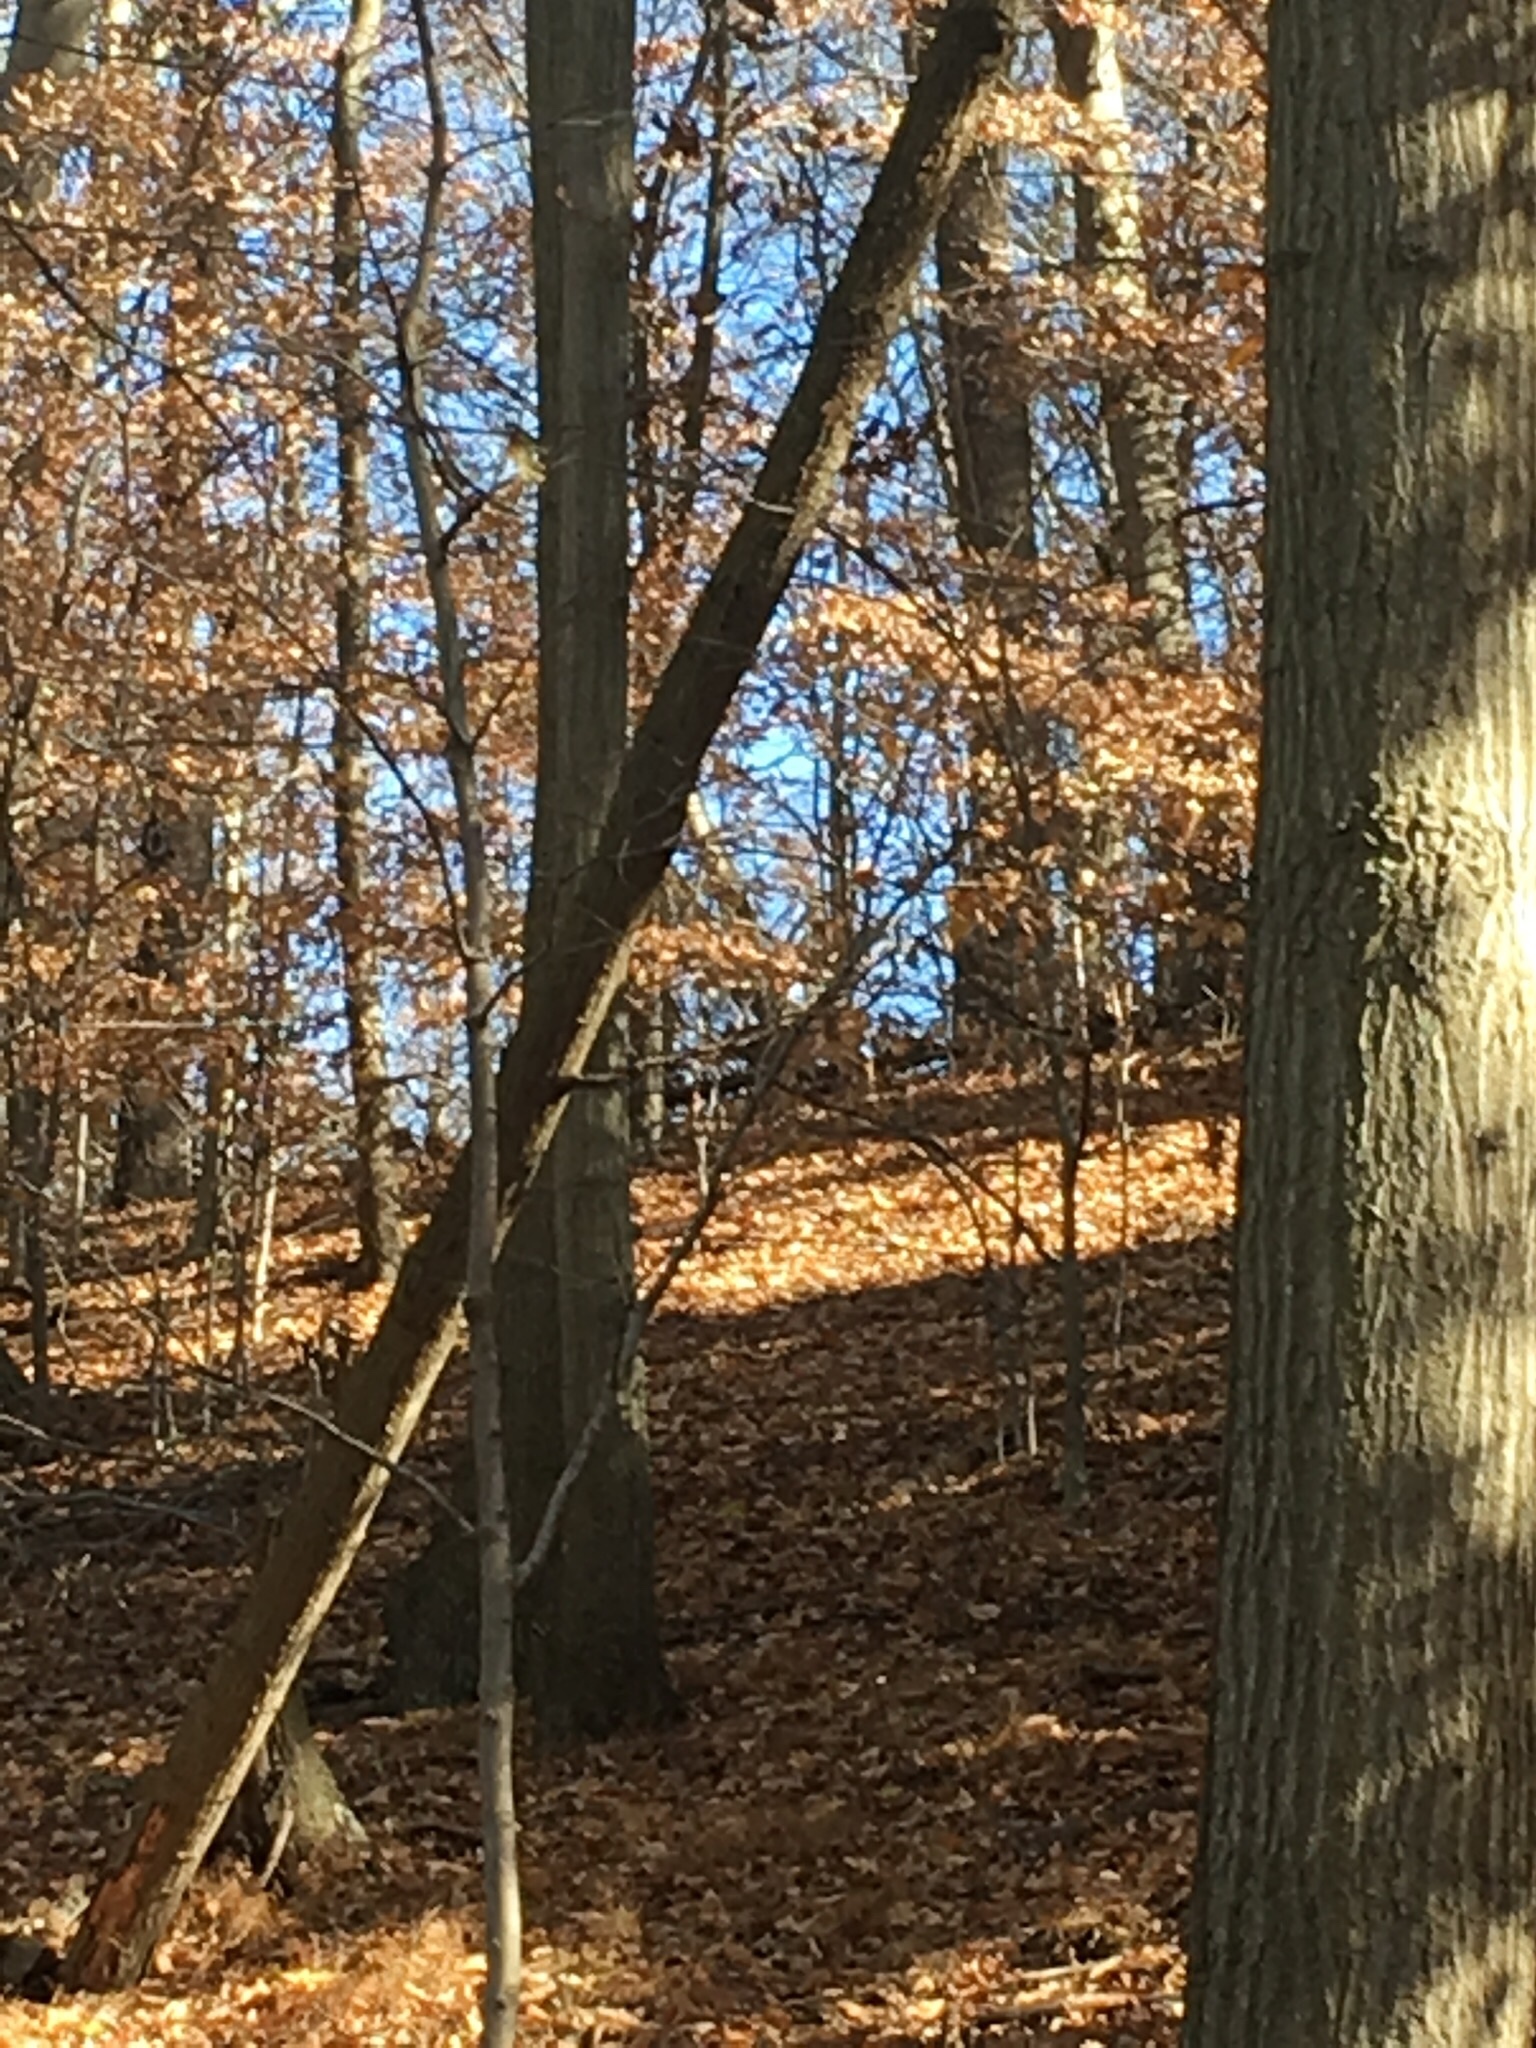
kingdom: Animalia
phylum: Chordata
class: Mammalia
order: Artiodactyla
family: Cervidae
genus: Odocoileus
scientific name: Odocoileus virginianus
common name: White-tailed deer
